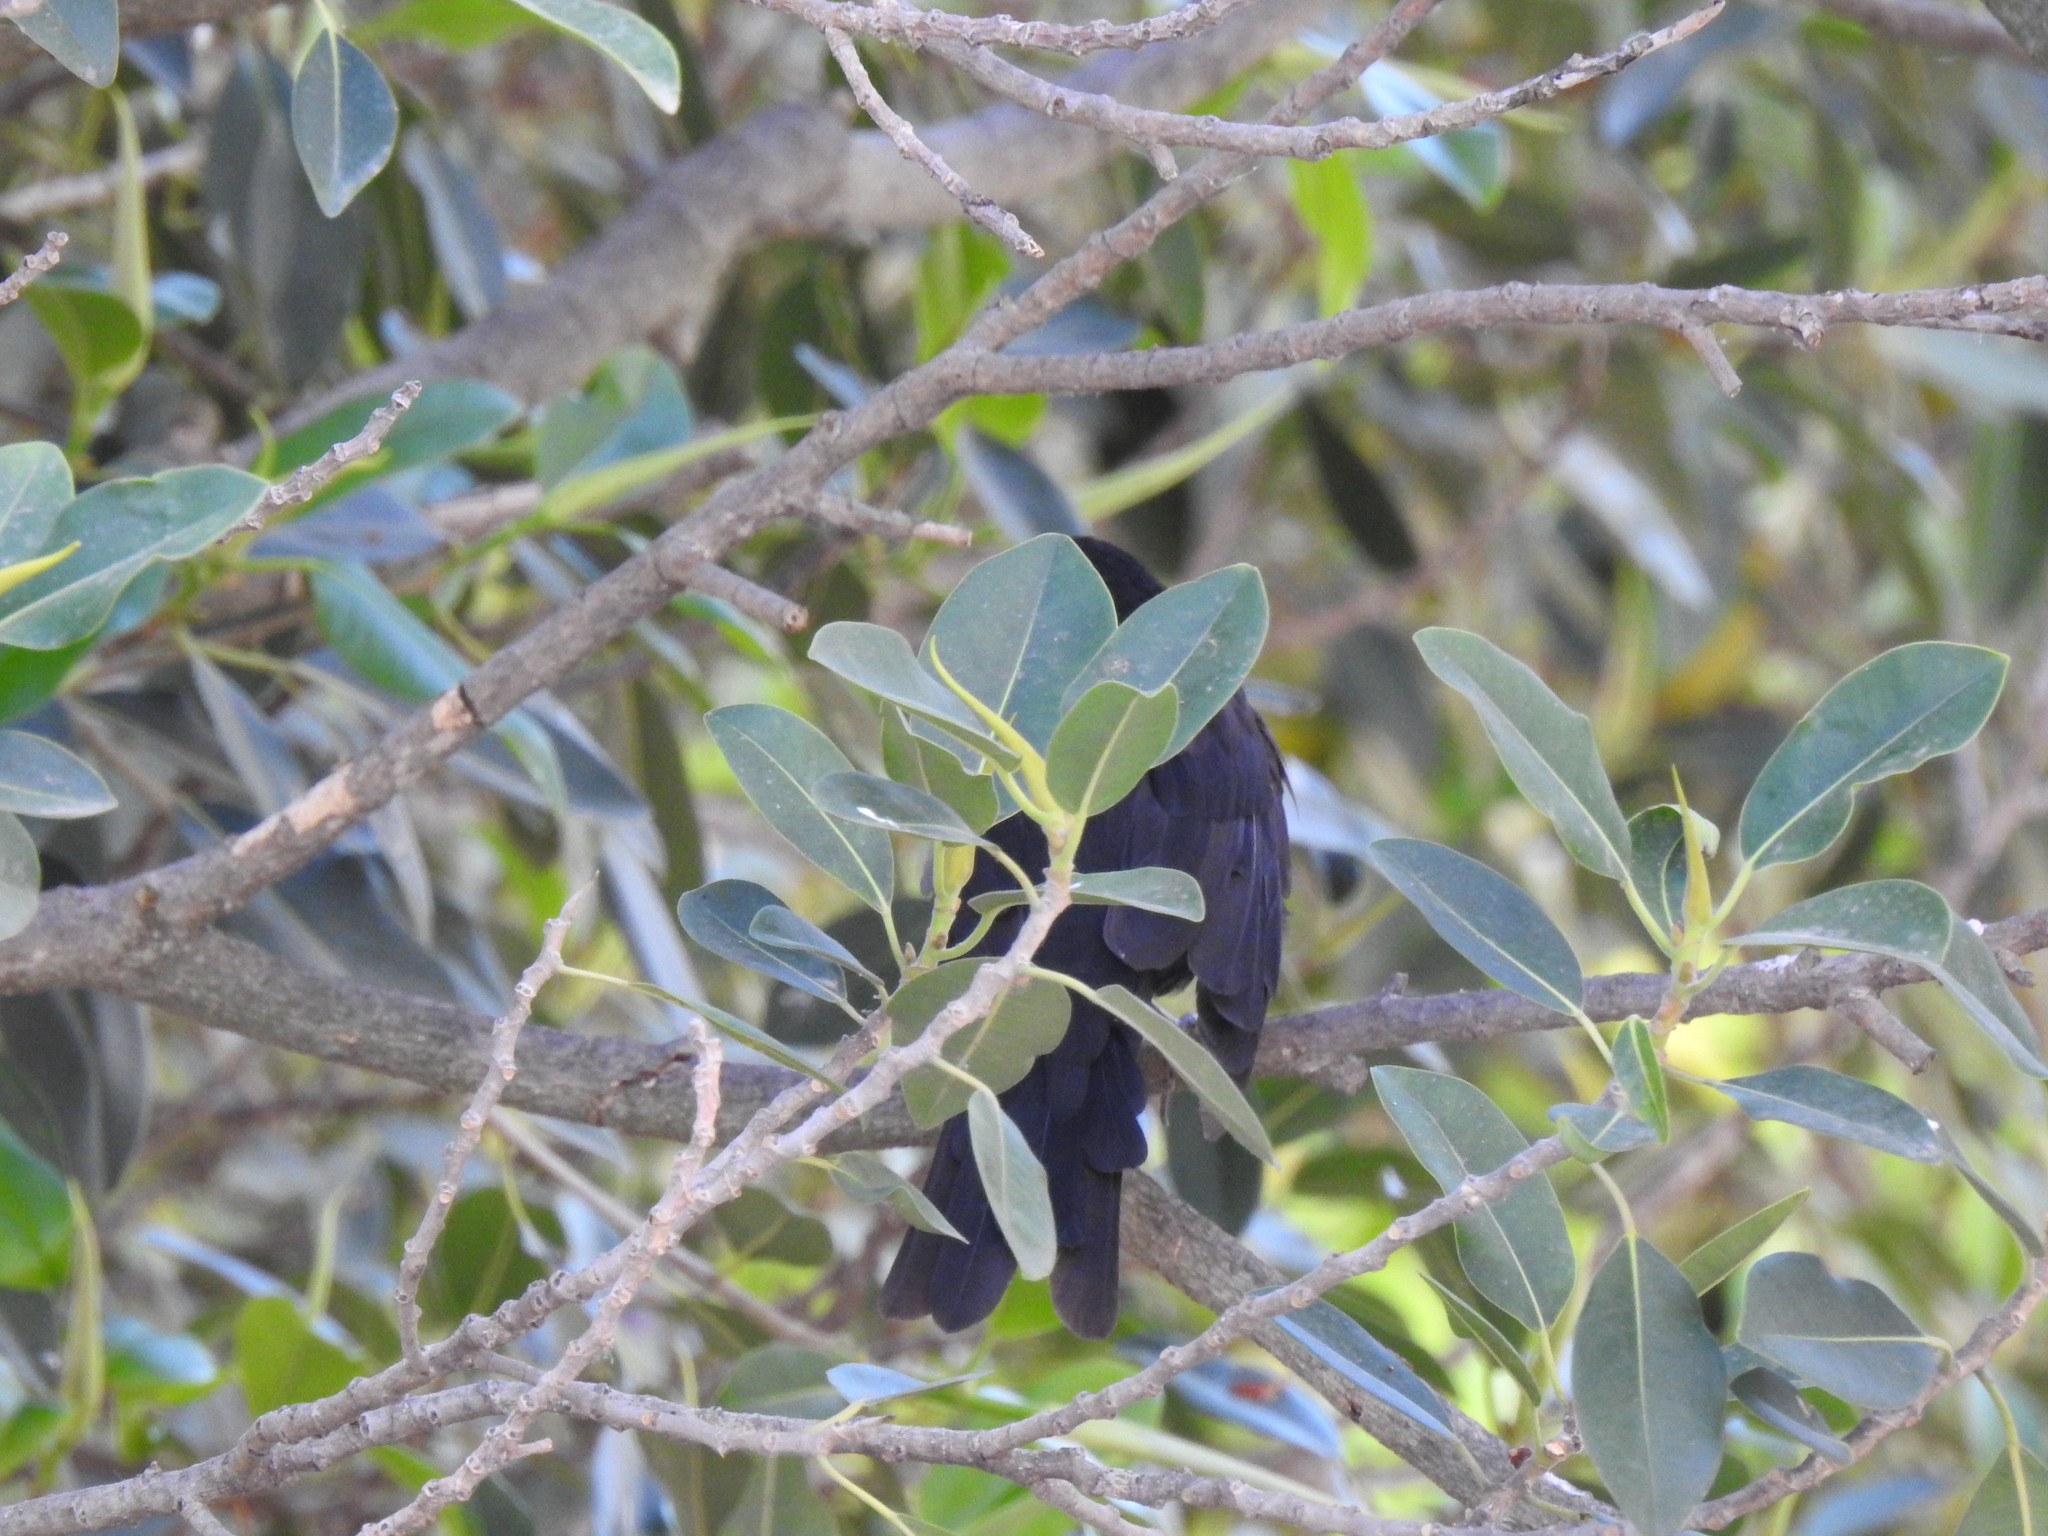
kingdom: Animalia
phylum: Chordata
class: Aves
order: Passeriformes
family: Turdidae
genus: Turdus
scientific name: Turdus merula
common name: Common blackbird
